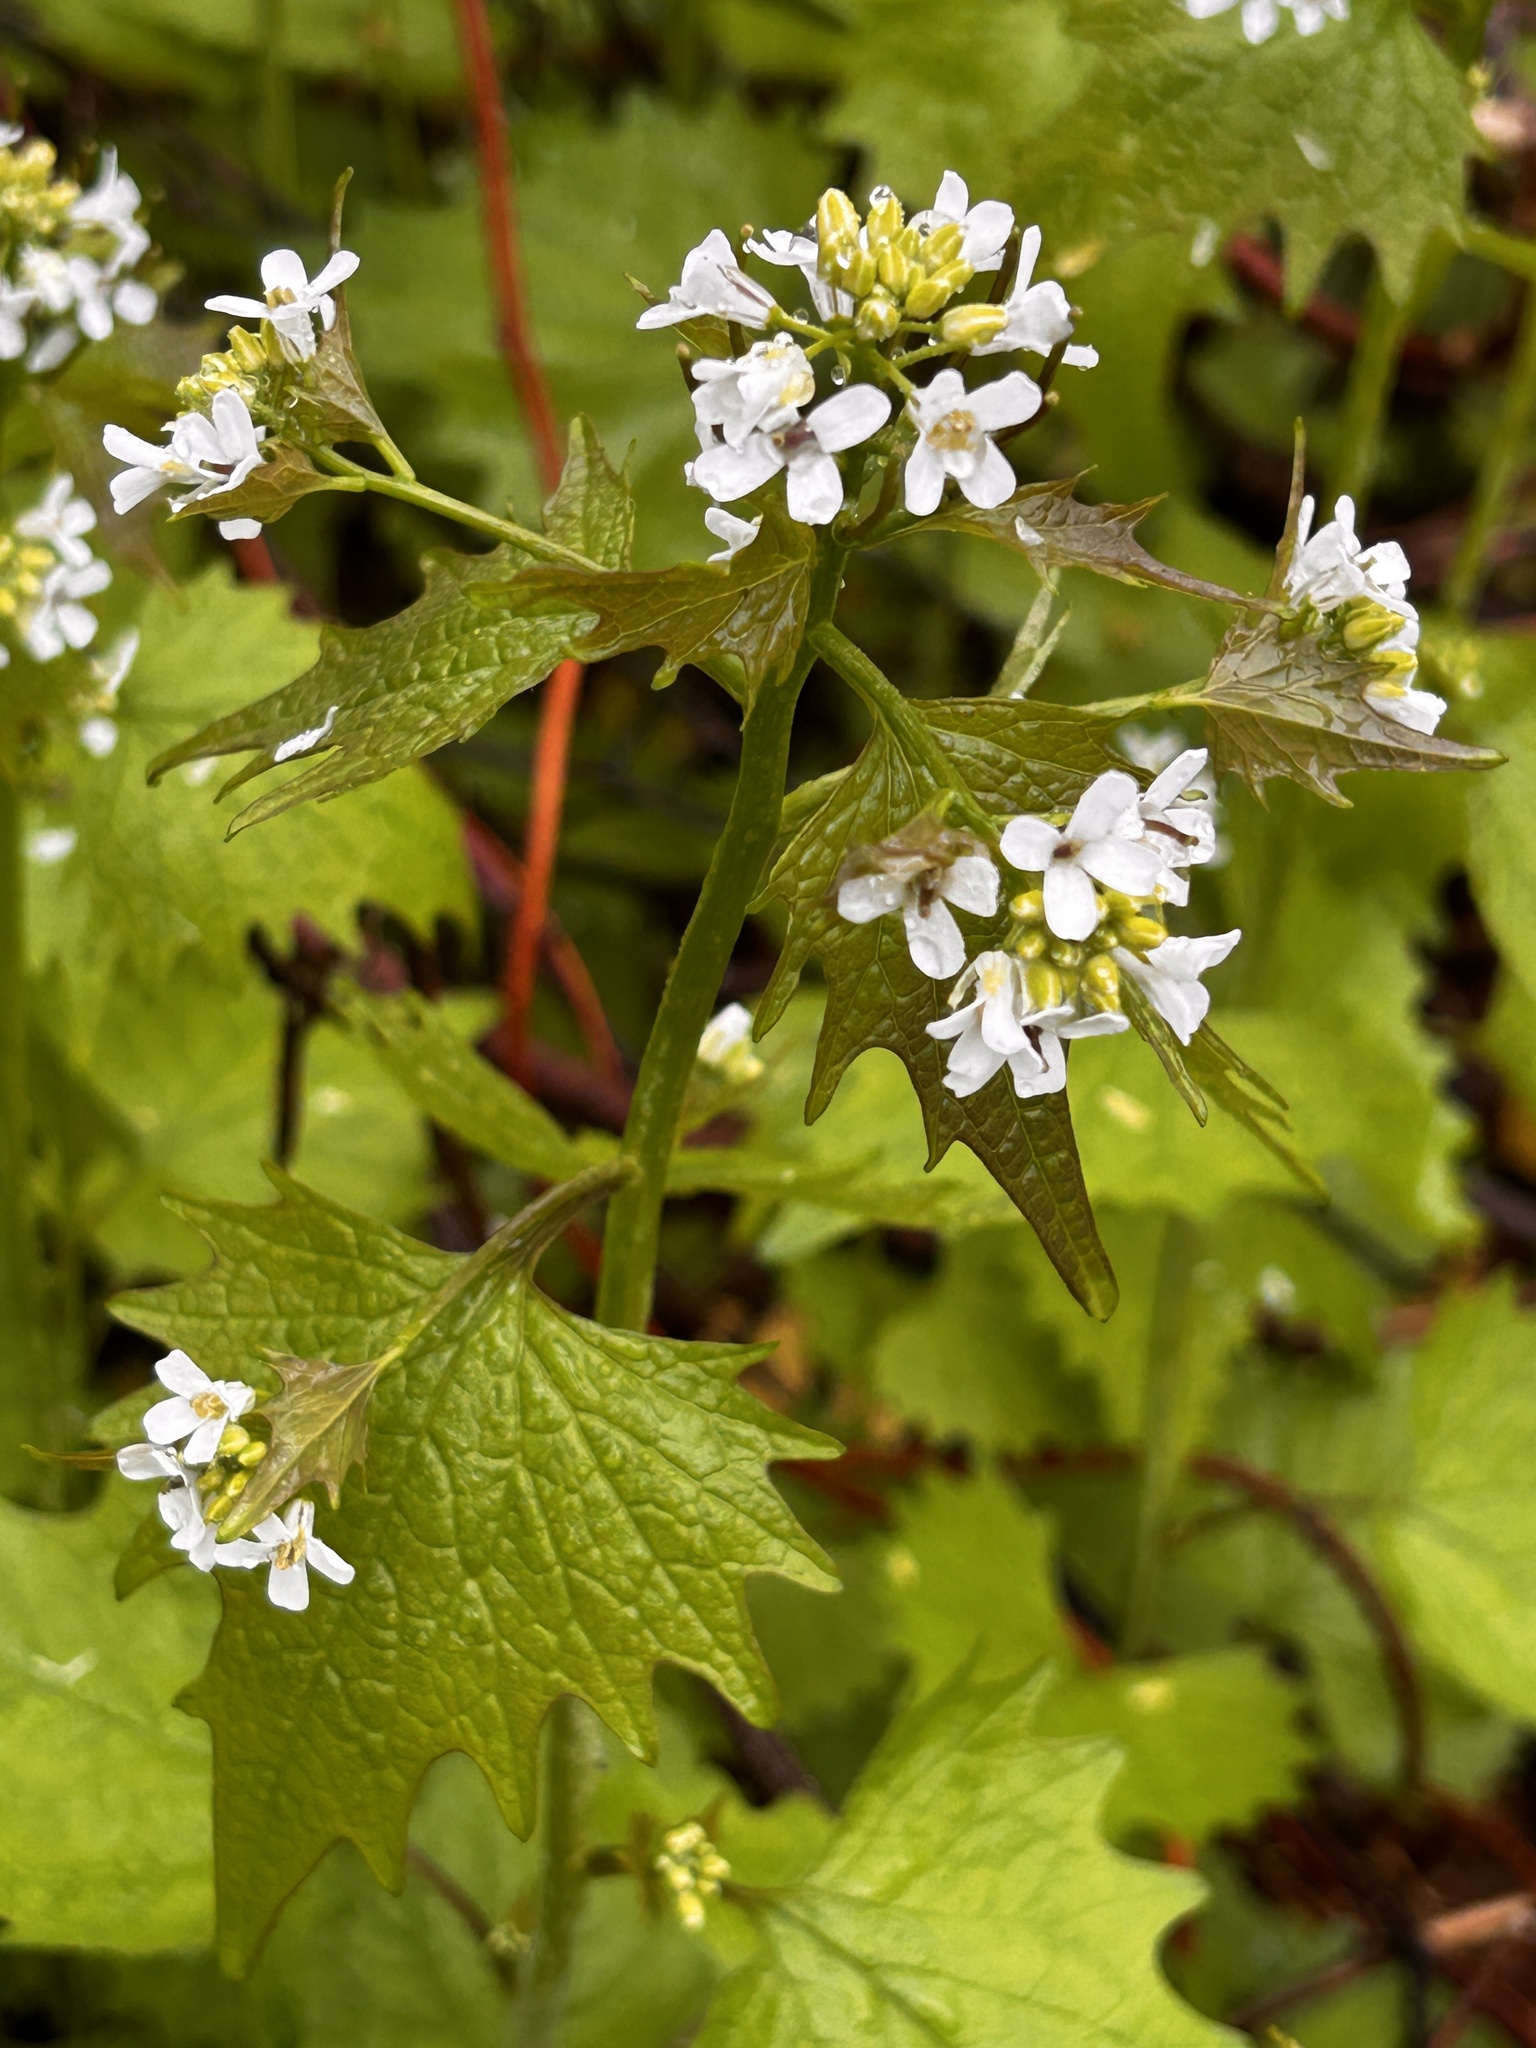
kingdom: Plantae
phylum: Tracheophyta
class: Magnoliopsida
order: Brassicales
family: Brassicaceae
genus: Alliaria
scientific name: Alliaria petiolata
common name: Garlic mustard
